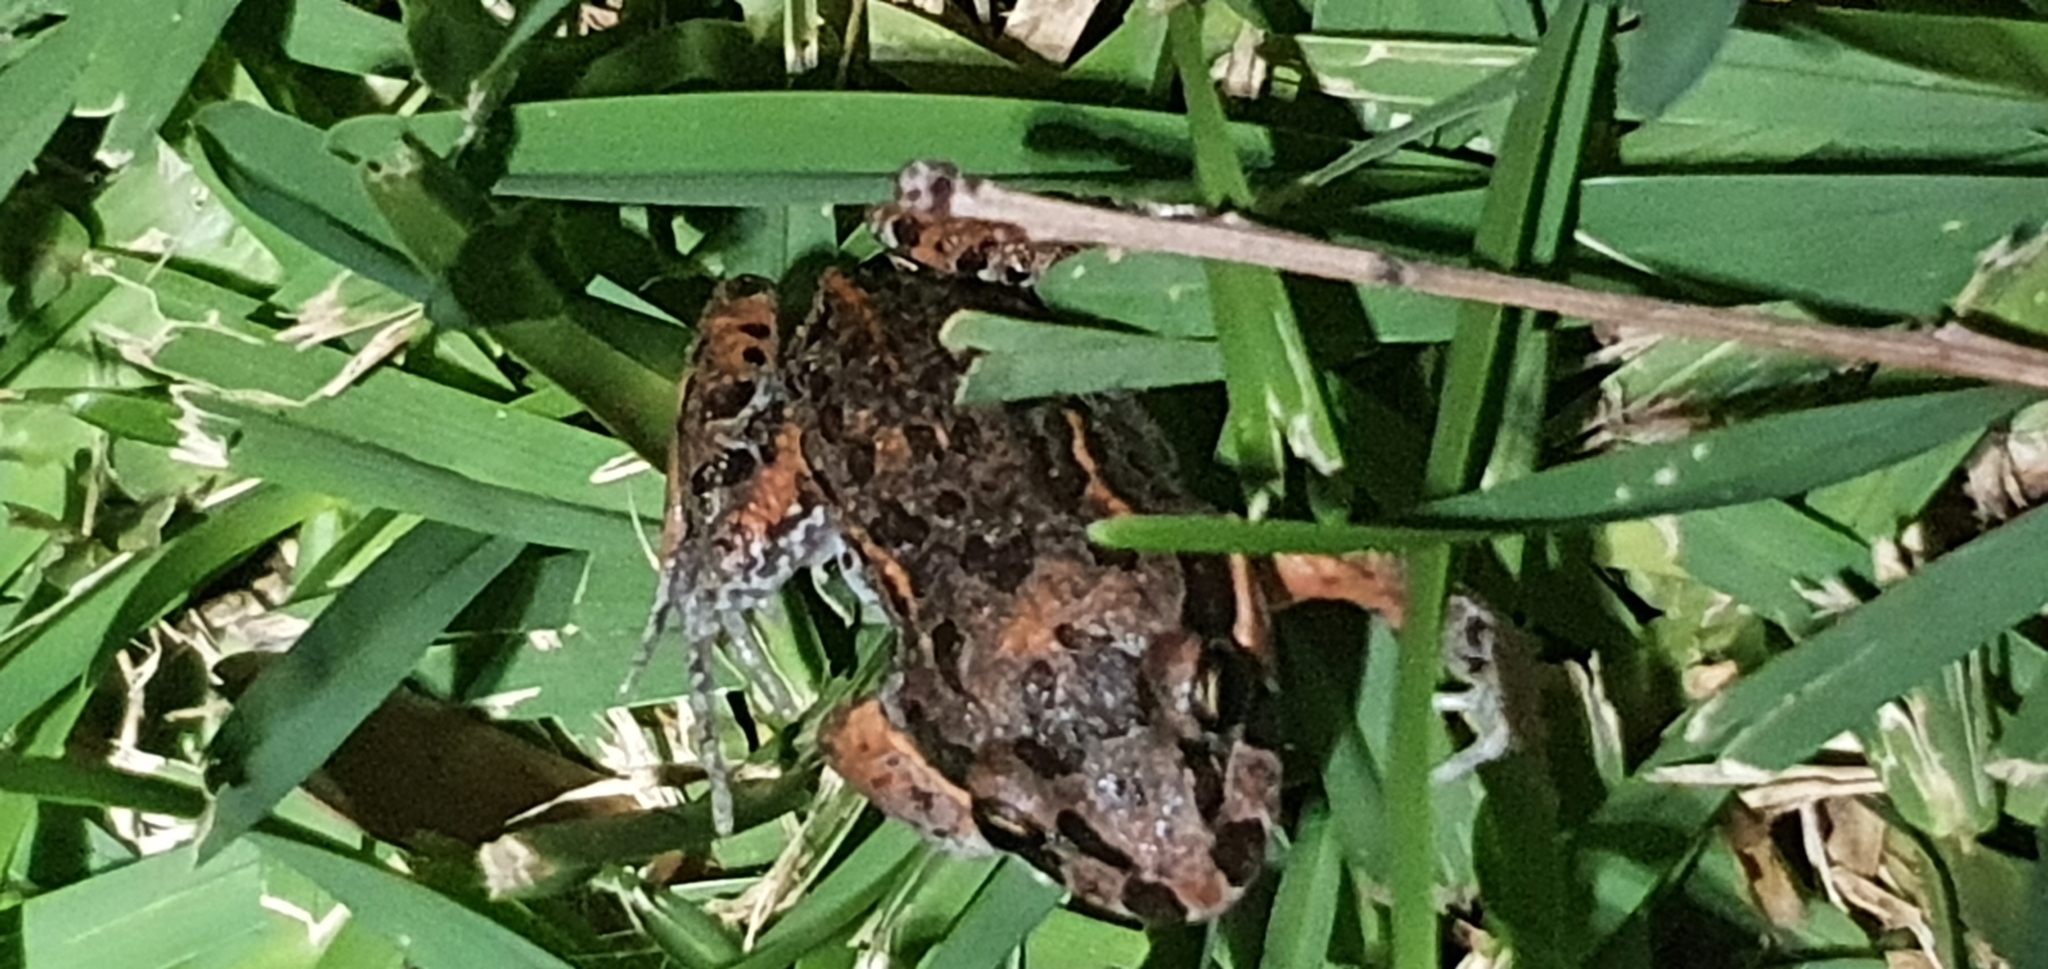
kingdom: Animalia
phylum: Chordata
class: Amphibia
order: Anura
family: Limnodynastidae
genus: Limnodynastes
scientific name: Limnodynastes salmini
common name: Salmon-striped frog
